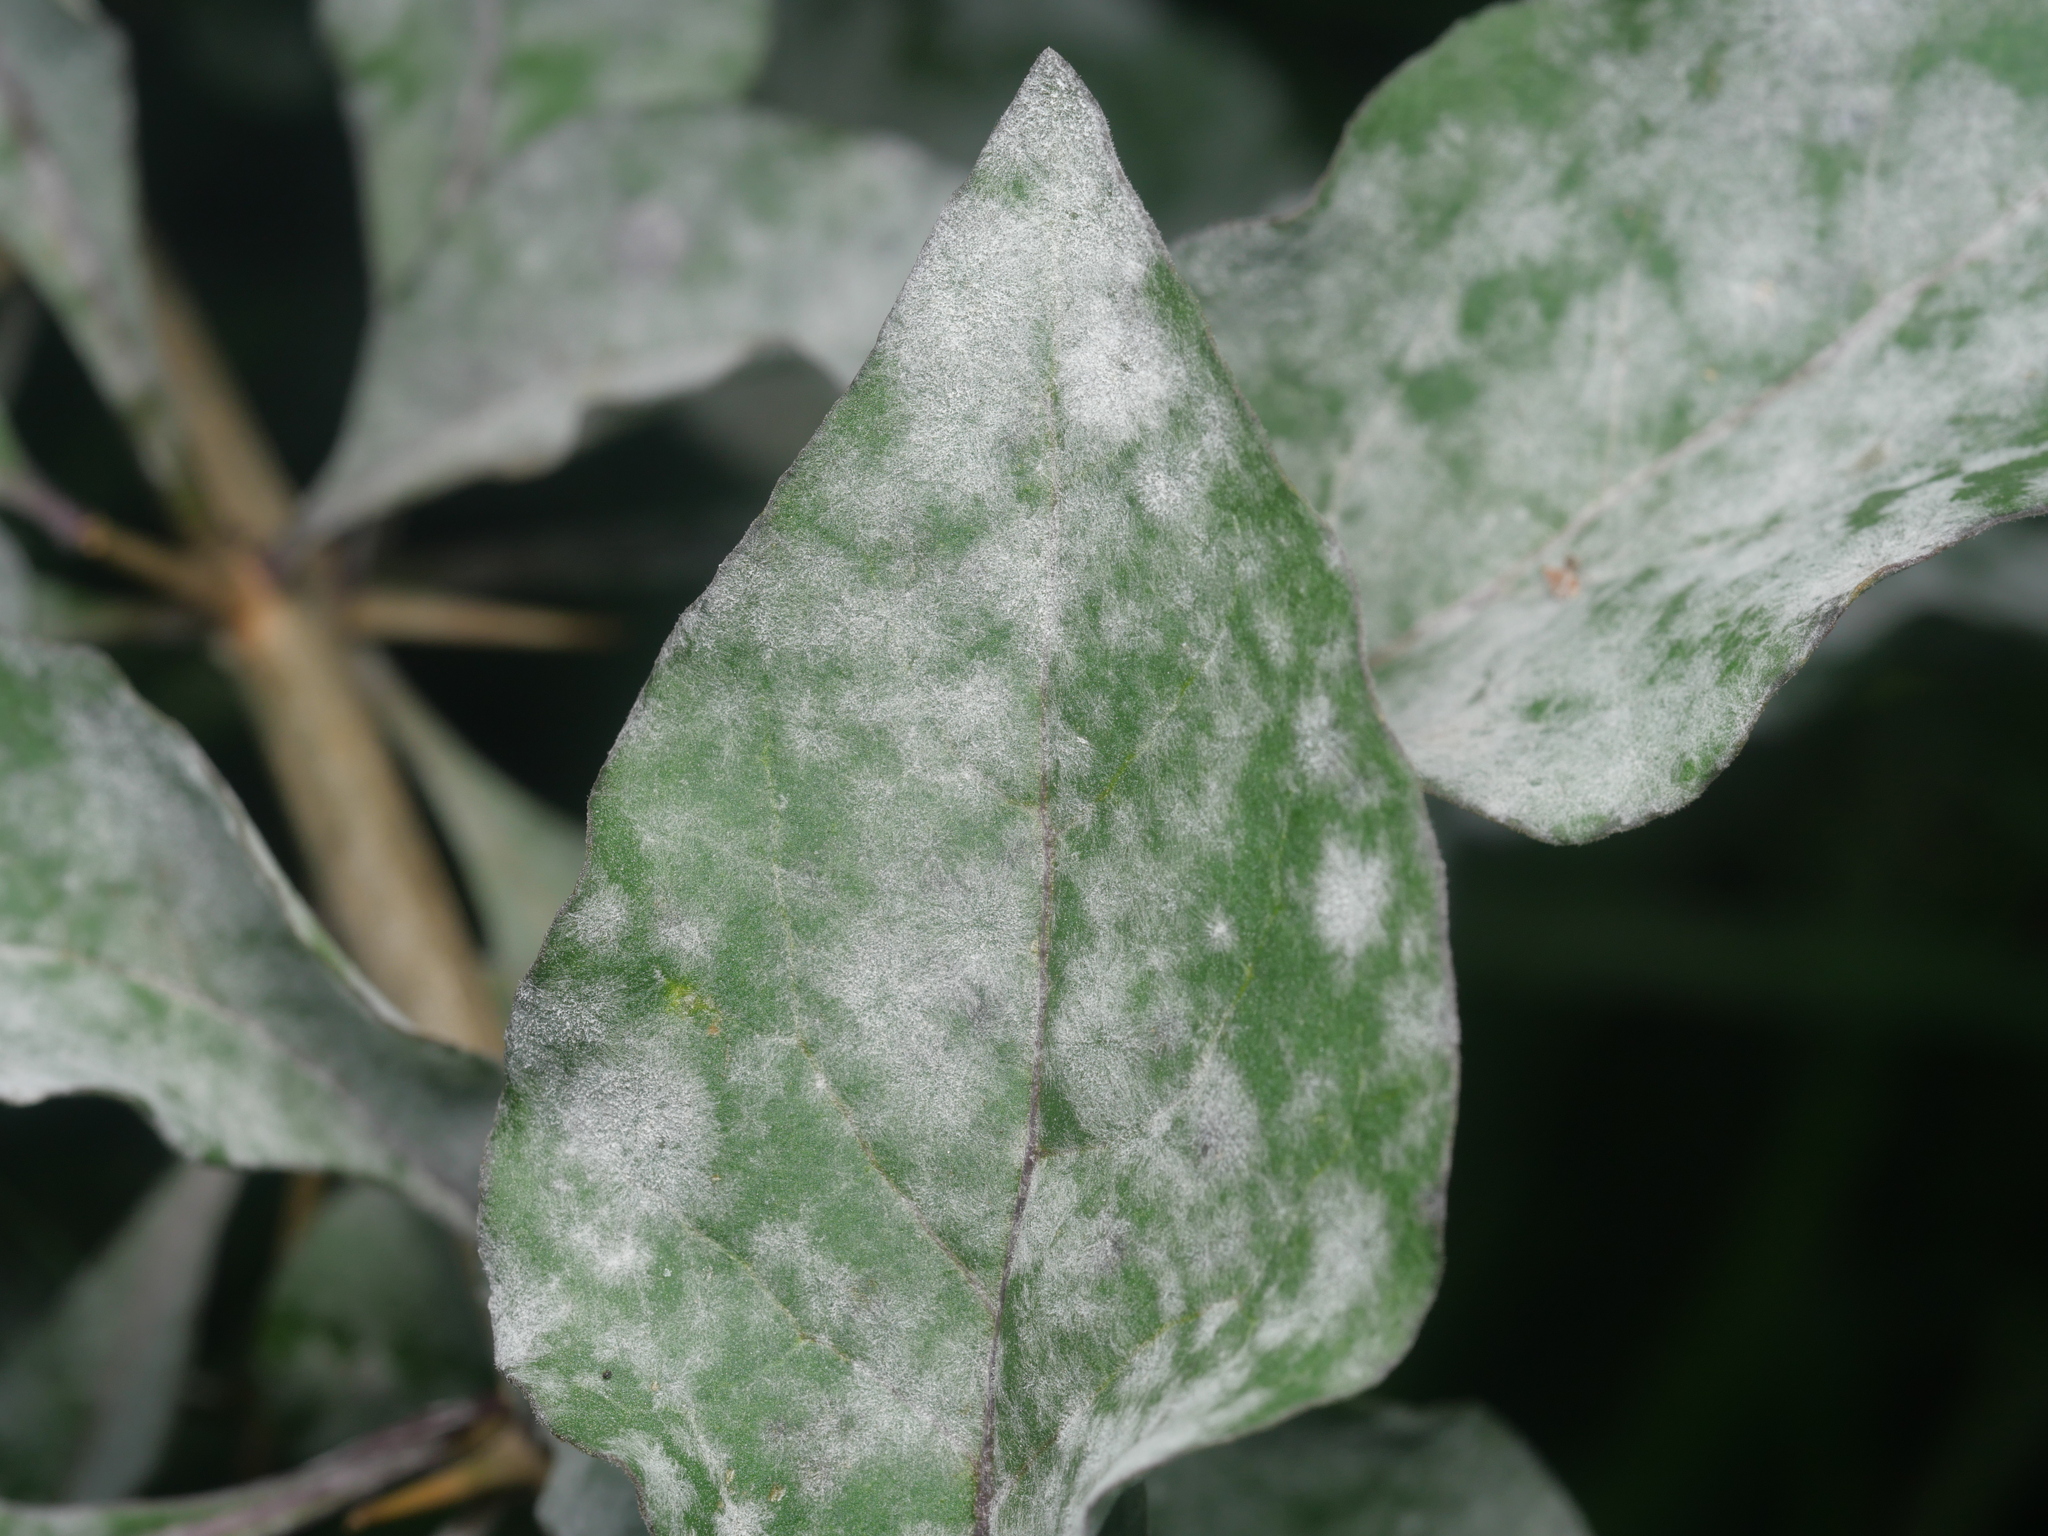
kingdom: Fungi
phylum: Ascomycota
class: Leotiomycetes
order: Helotiales
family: Erysiphaceae
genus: Erysiphe
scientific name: Erysiphe mougeotii
